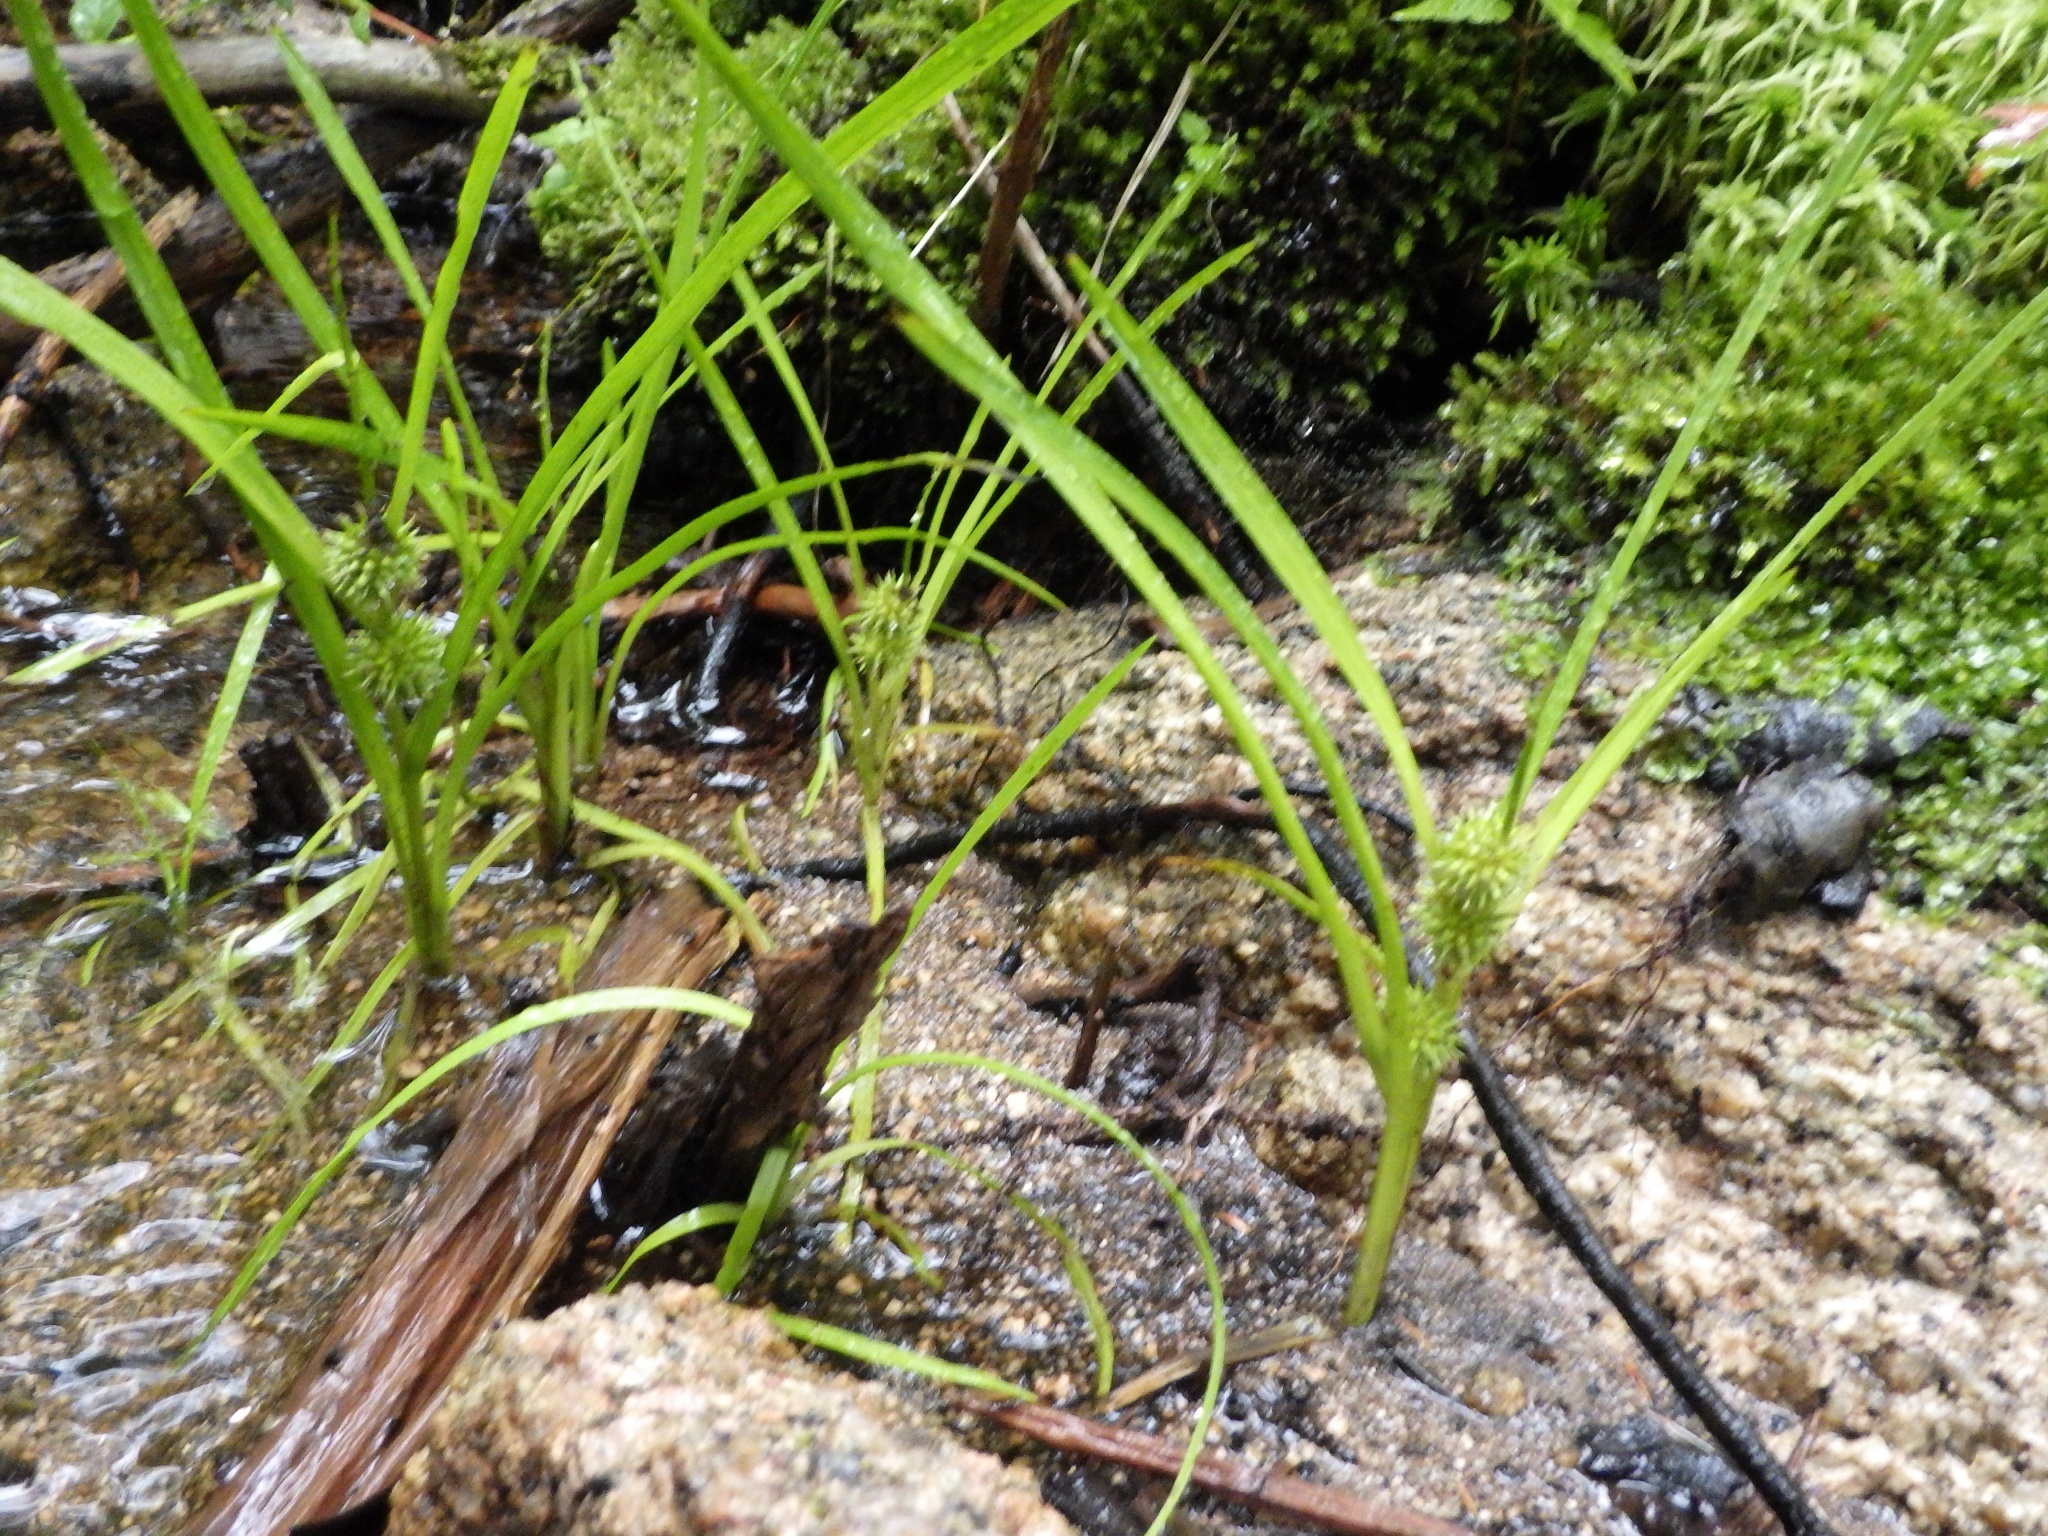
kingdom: Plantae
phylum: Tracheophyta
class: Liliopsida
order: Poales
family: Typhaceae
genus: Sparganium
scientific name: Sparganium emersum
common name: Unbranched bur-reed
